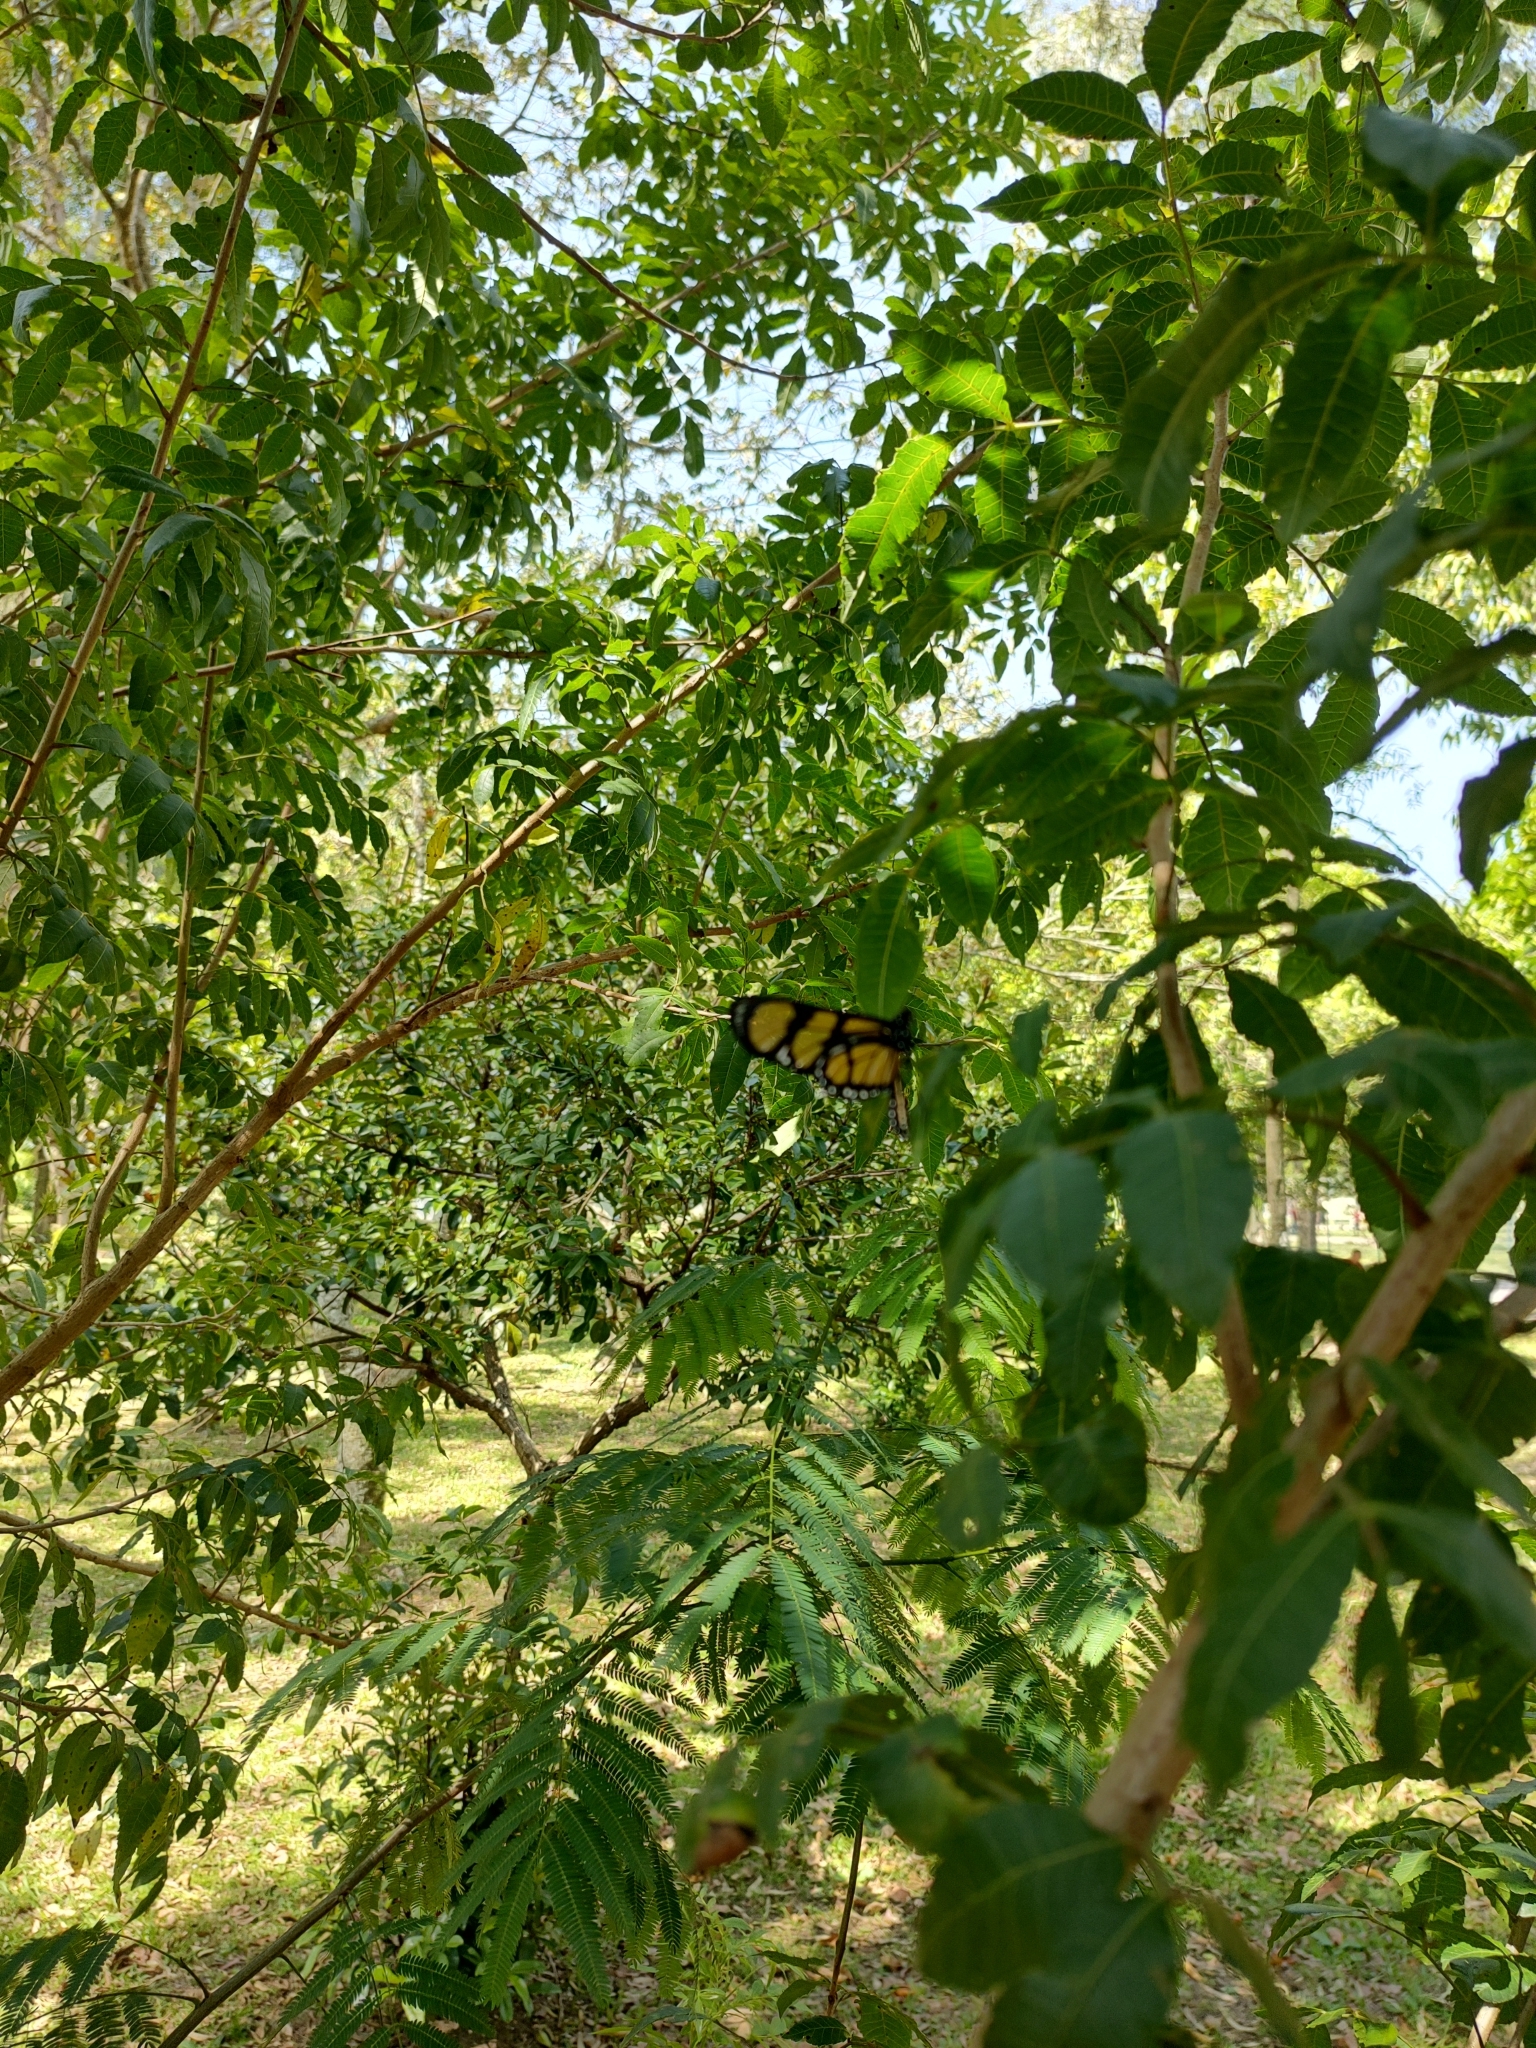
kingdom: Animalia
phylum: Arthropoda
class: Insecta
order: Lepidoptera
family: Nymphalidae
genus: Methona
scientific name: Methona themisto
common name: Themisto amberwing
